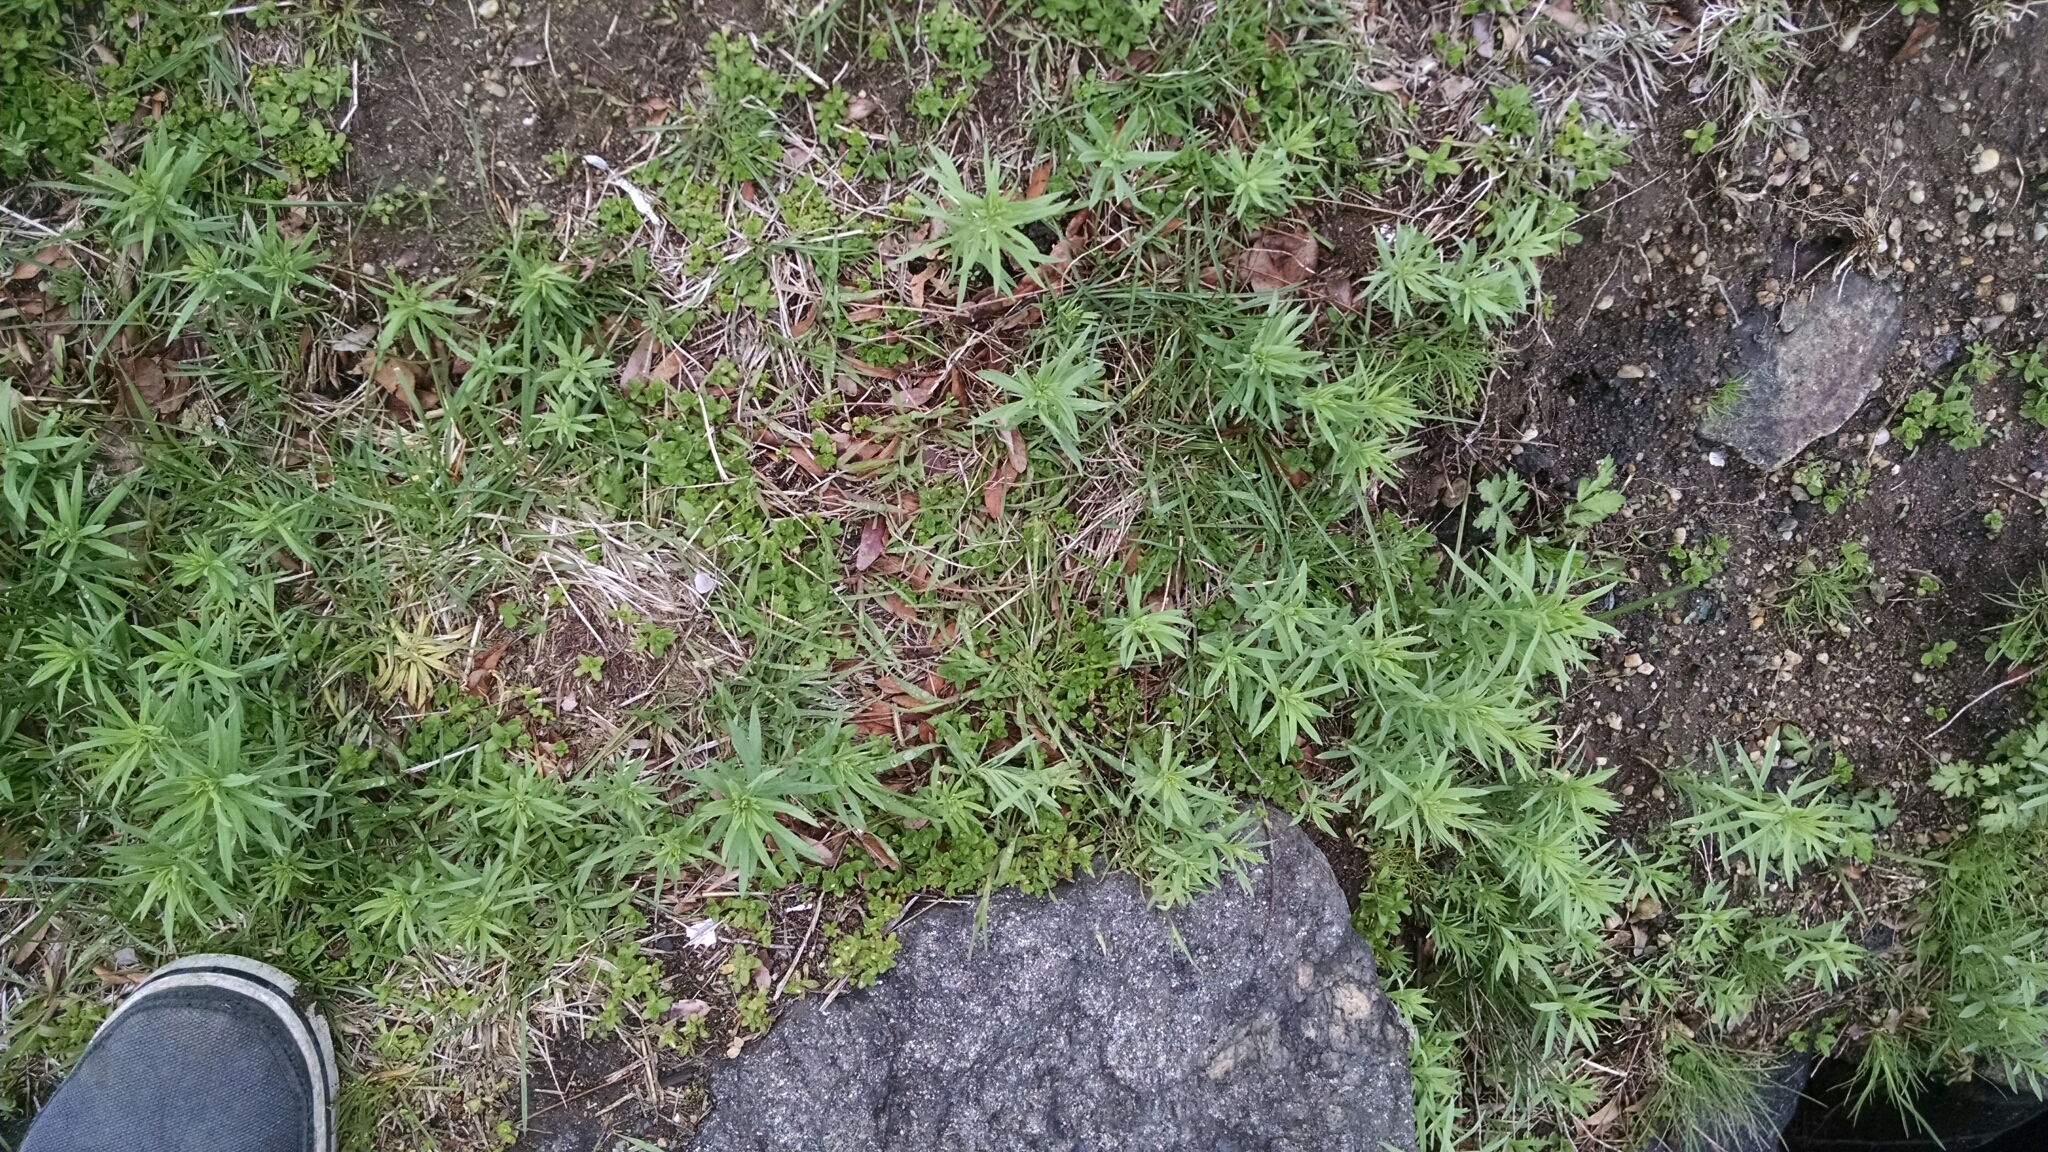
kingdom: Plantae
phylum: Tracheophyta
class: Magnoliopsida
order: Lamiales
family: Plantaginaceae
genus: Linaria
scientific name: Linaria vulgaris
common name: Butter and eggs
